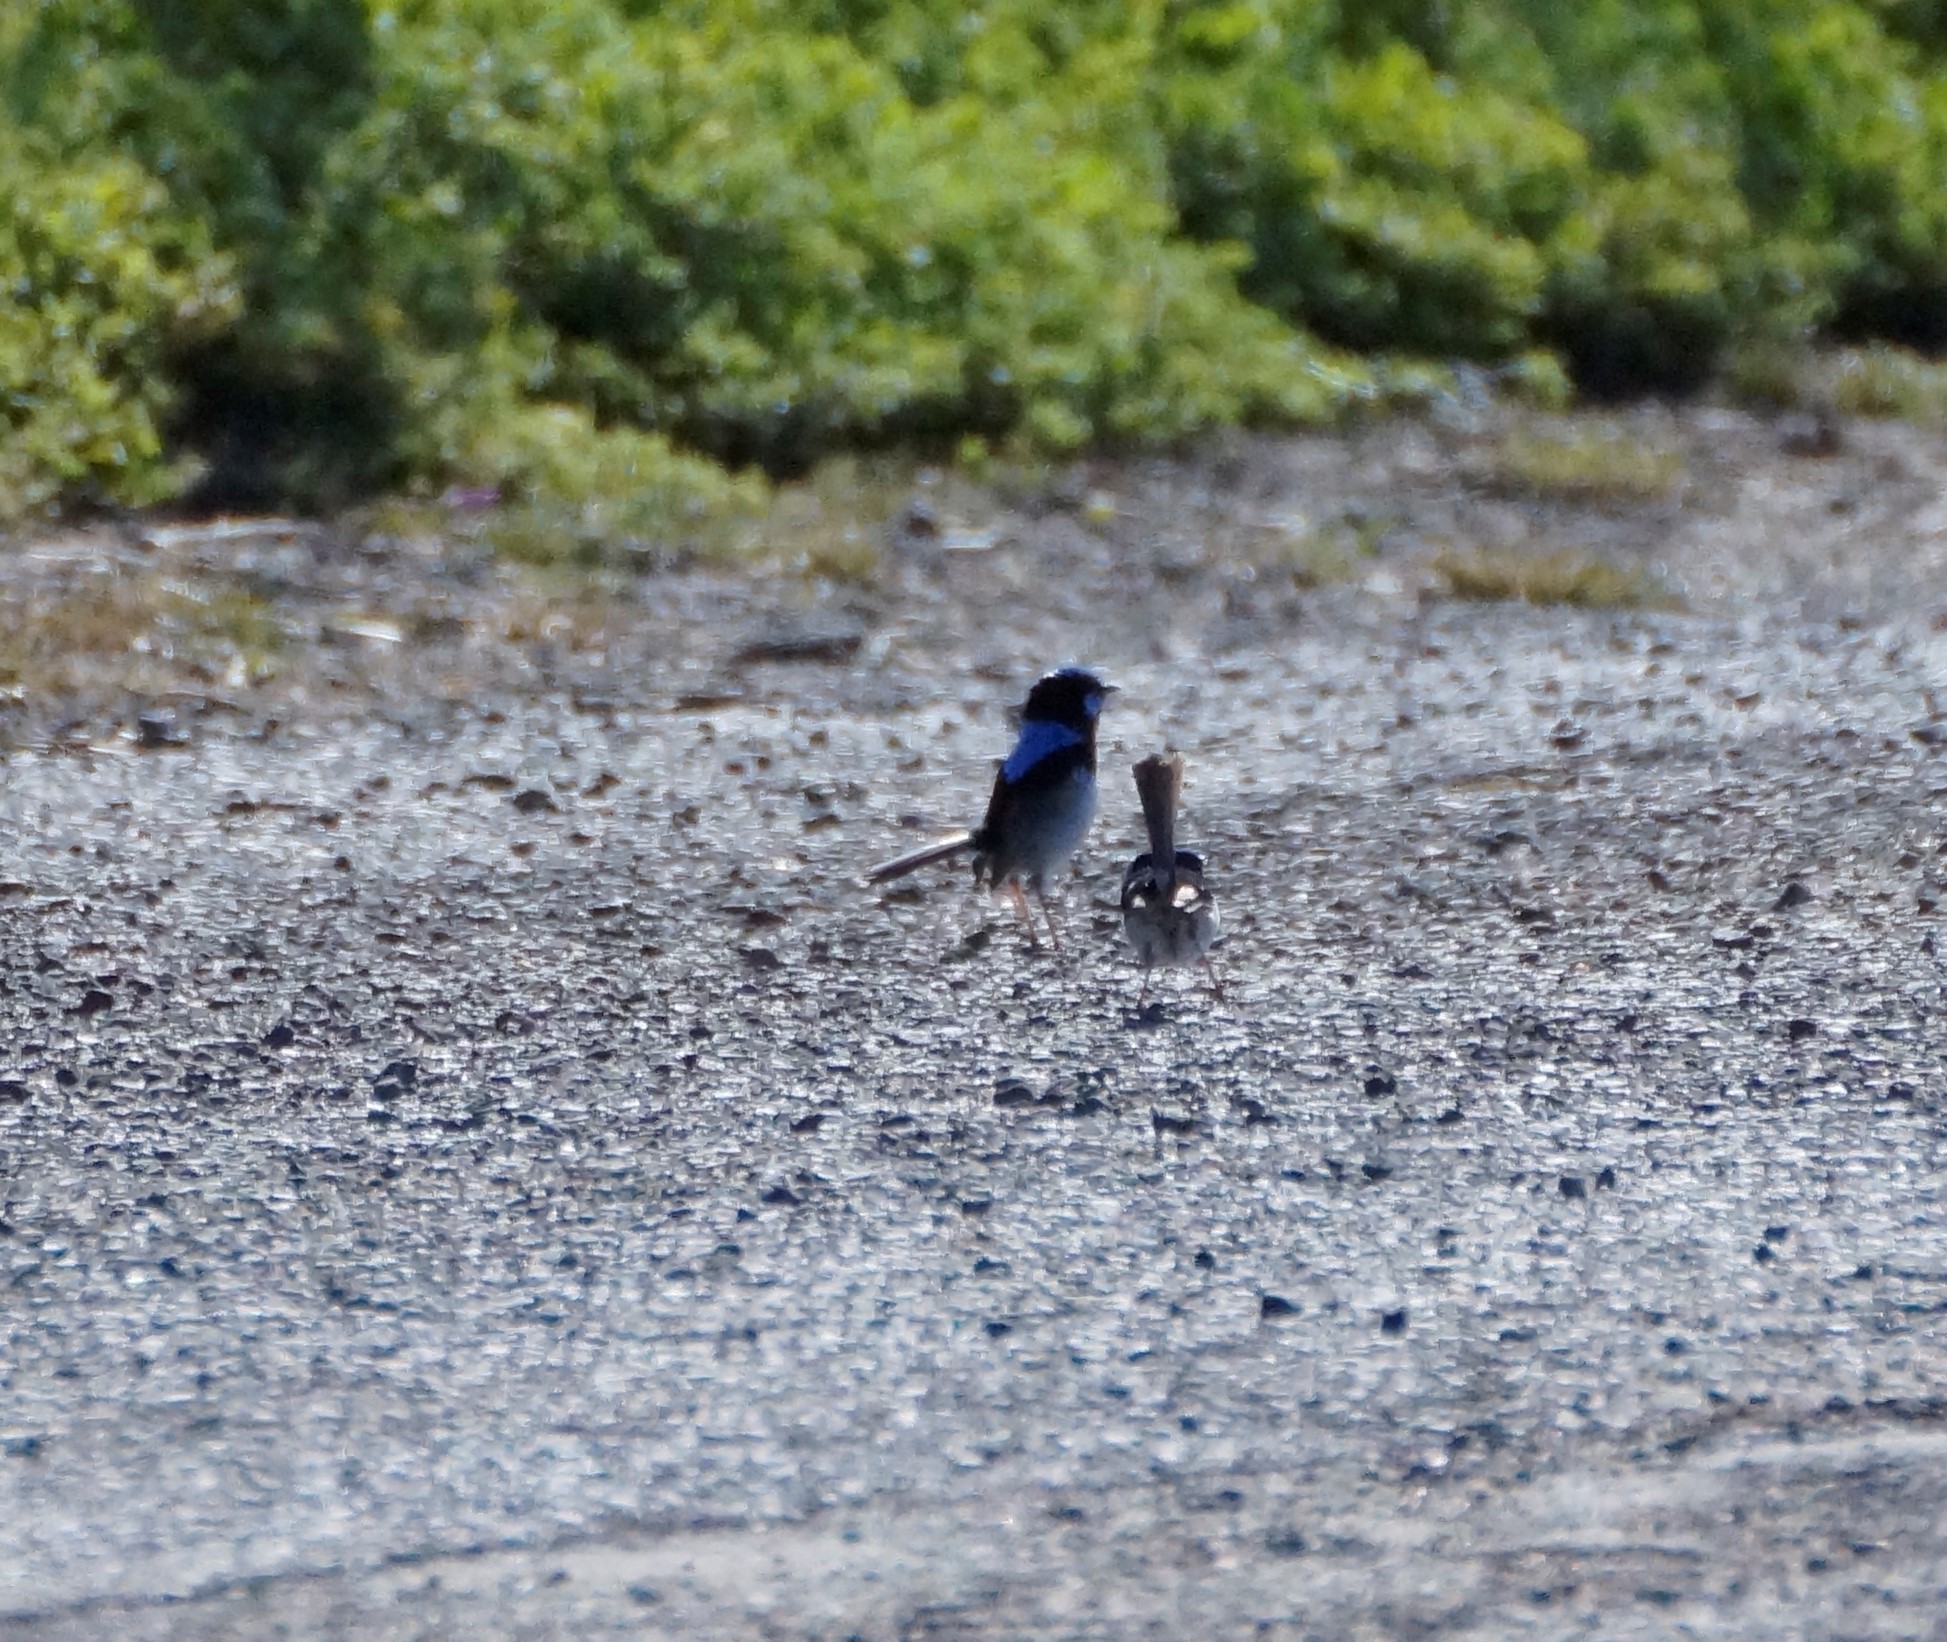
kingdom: Animalia
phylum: Chordata
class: Aves
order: Passeriformes
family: Maluridae
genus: Malurus
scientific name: Malurus cyaneus
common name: Superb fairywren
